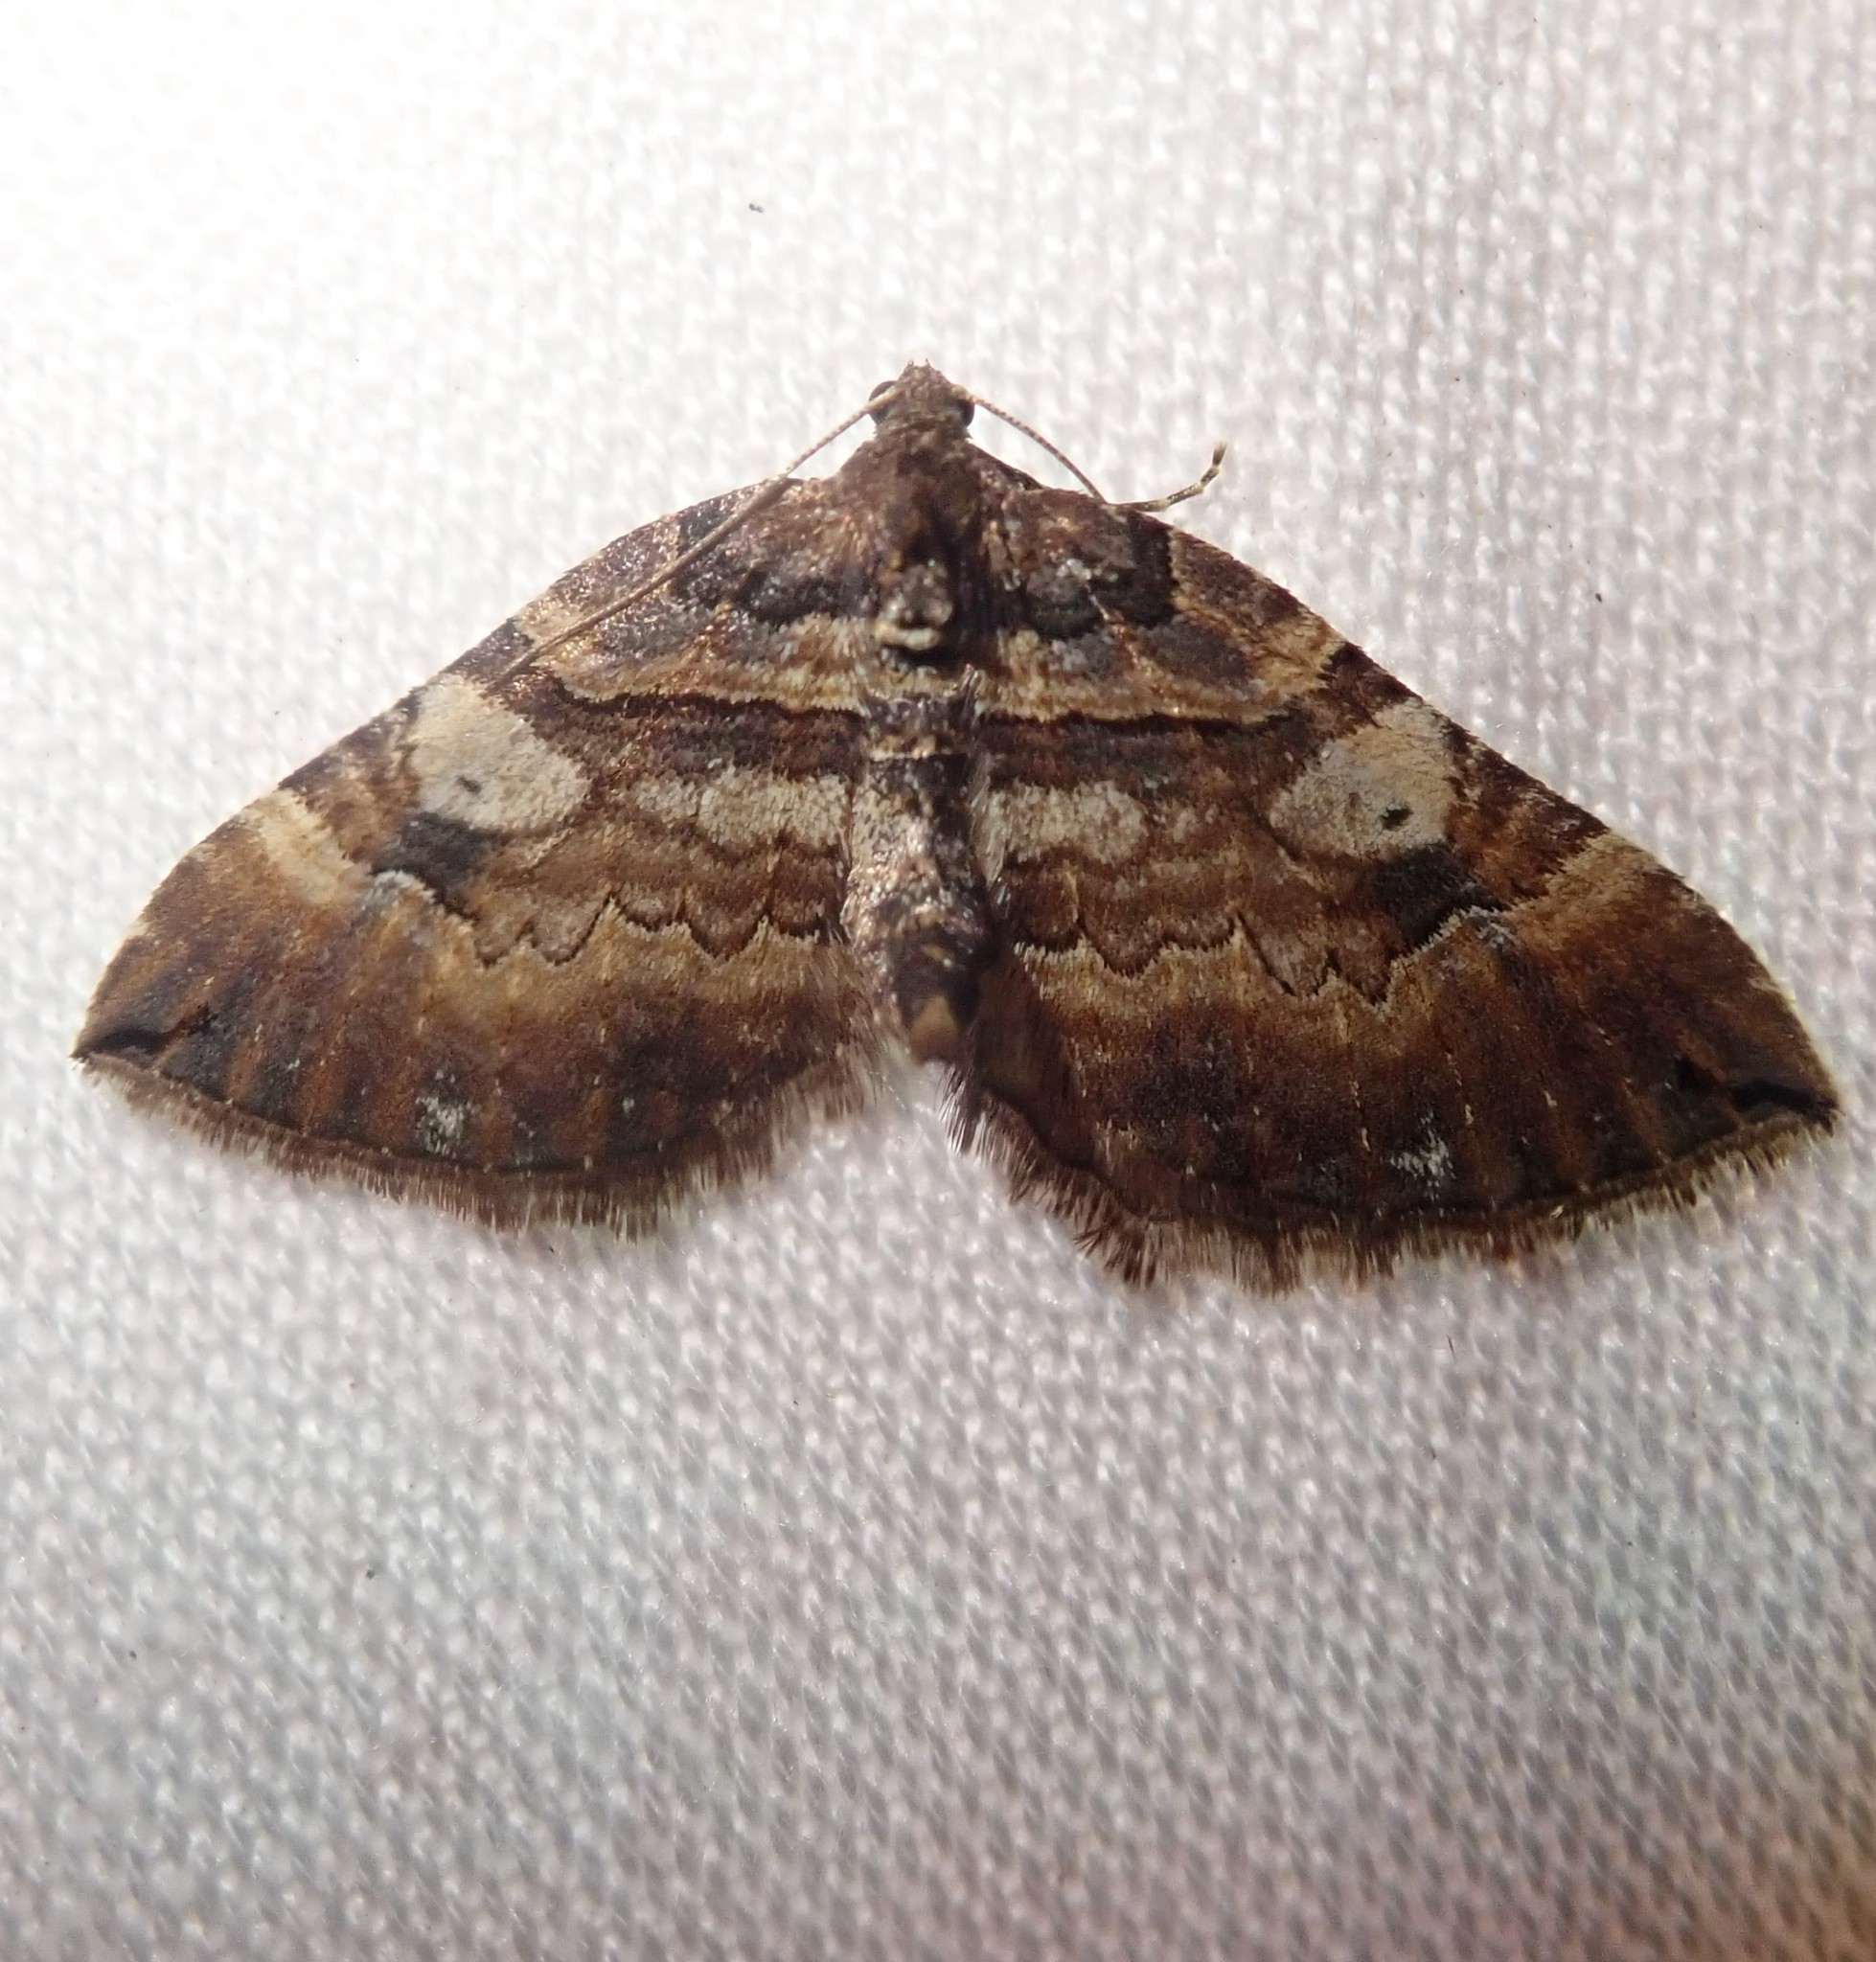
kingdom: Animalia
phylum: Arthropoda
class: Insecta
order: Lepidoptera
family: Geometridae
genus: Anticlea
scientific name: Anticlea badiata
